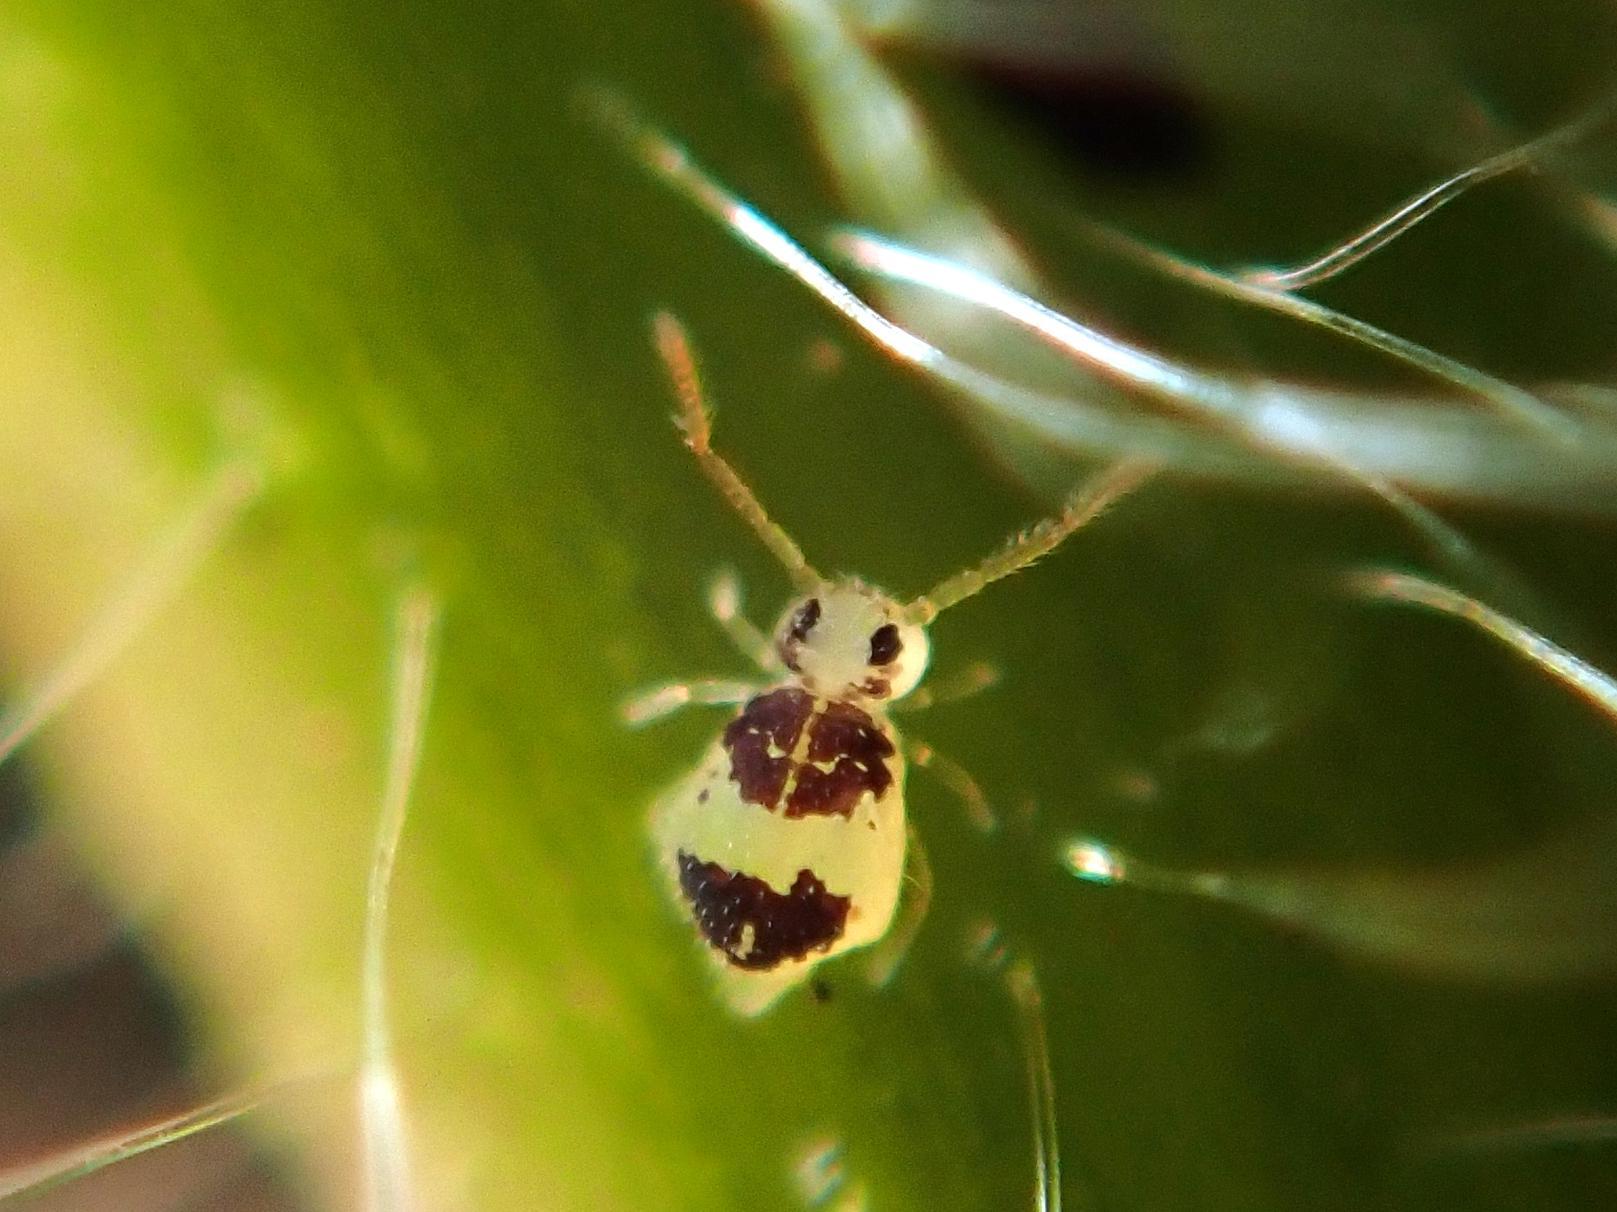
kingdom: Animalia
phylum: Arthropoda
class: Collembola
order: Symphypleona
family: Bourletiellidae
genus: Deuterosminthurus
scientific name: Deuterosminthurus bicinctus
